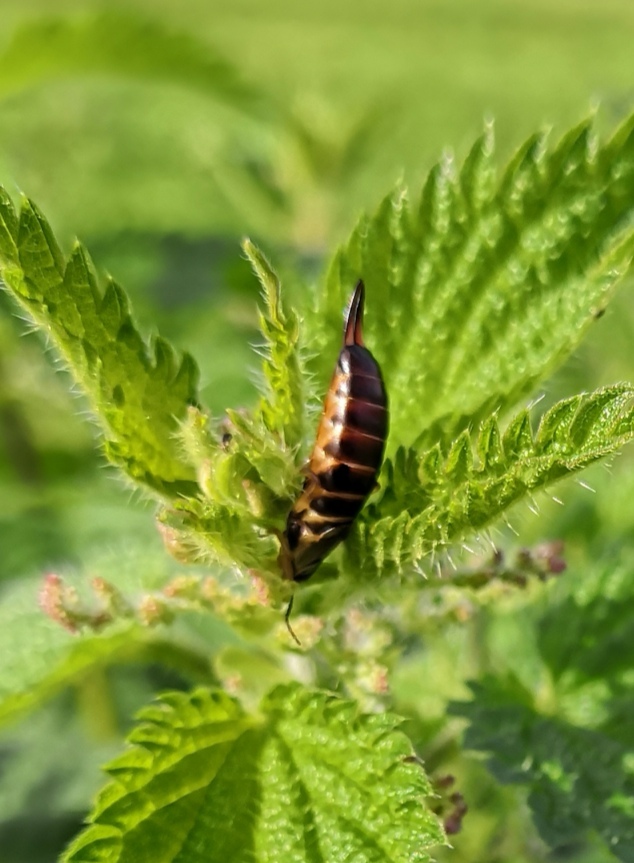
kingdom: Animalia
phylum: Arthropoda
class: Insecta
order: Dermaptera
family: Forficulidae
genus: Forficula
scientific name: Forficula
